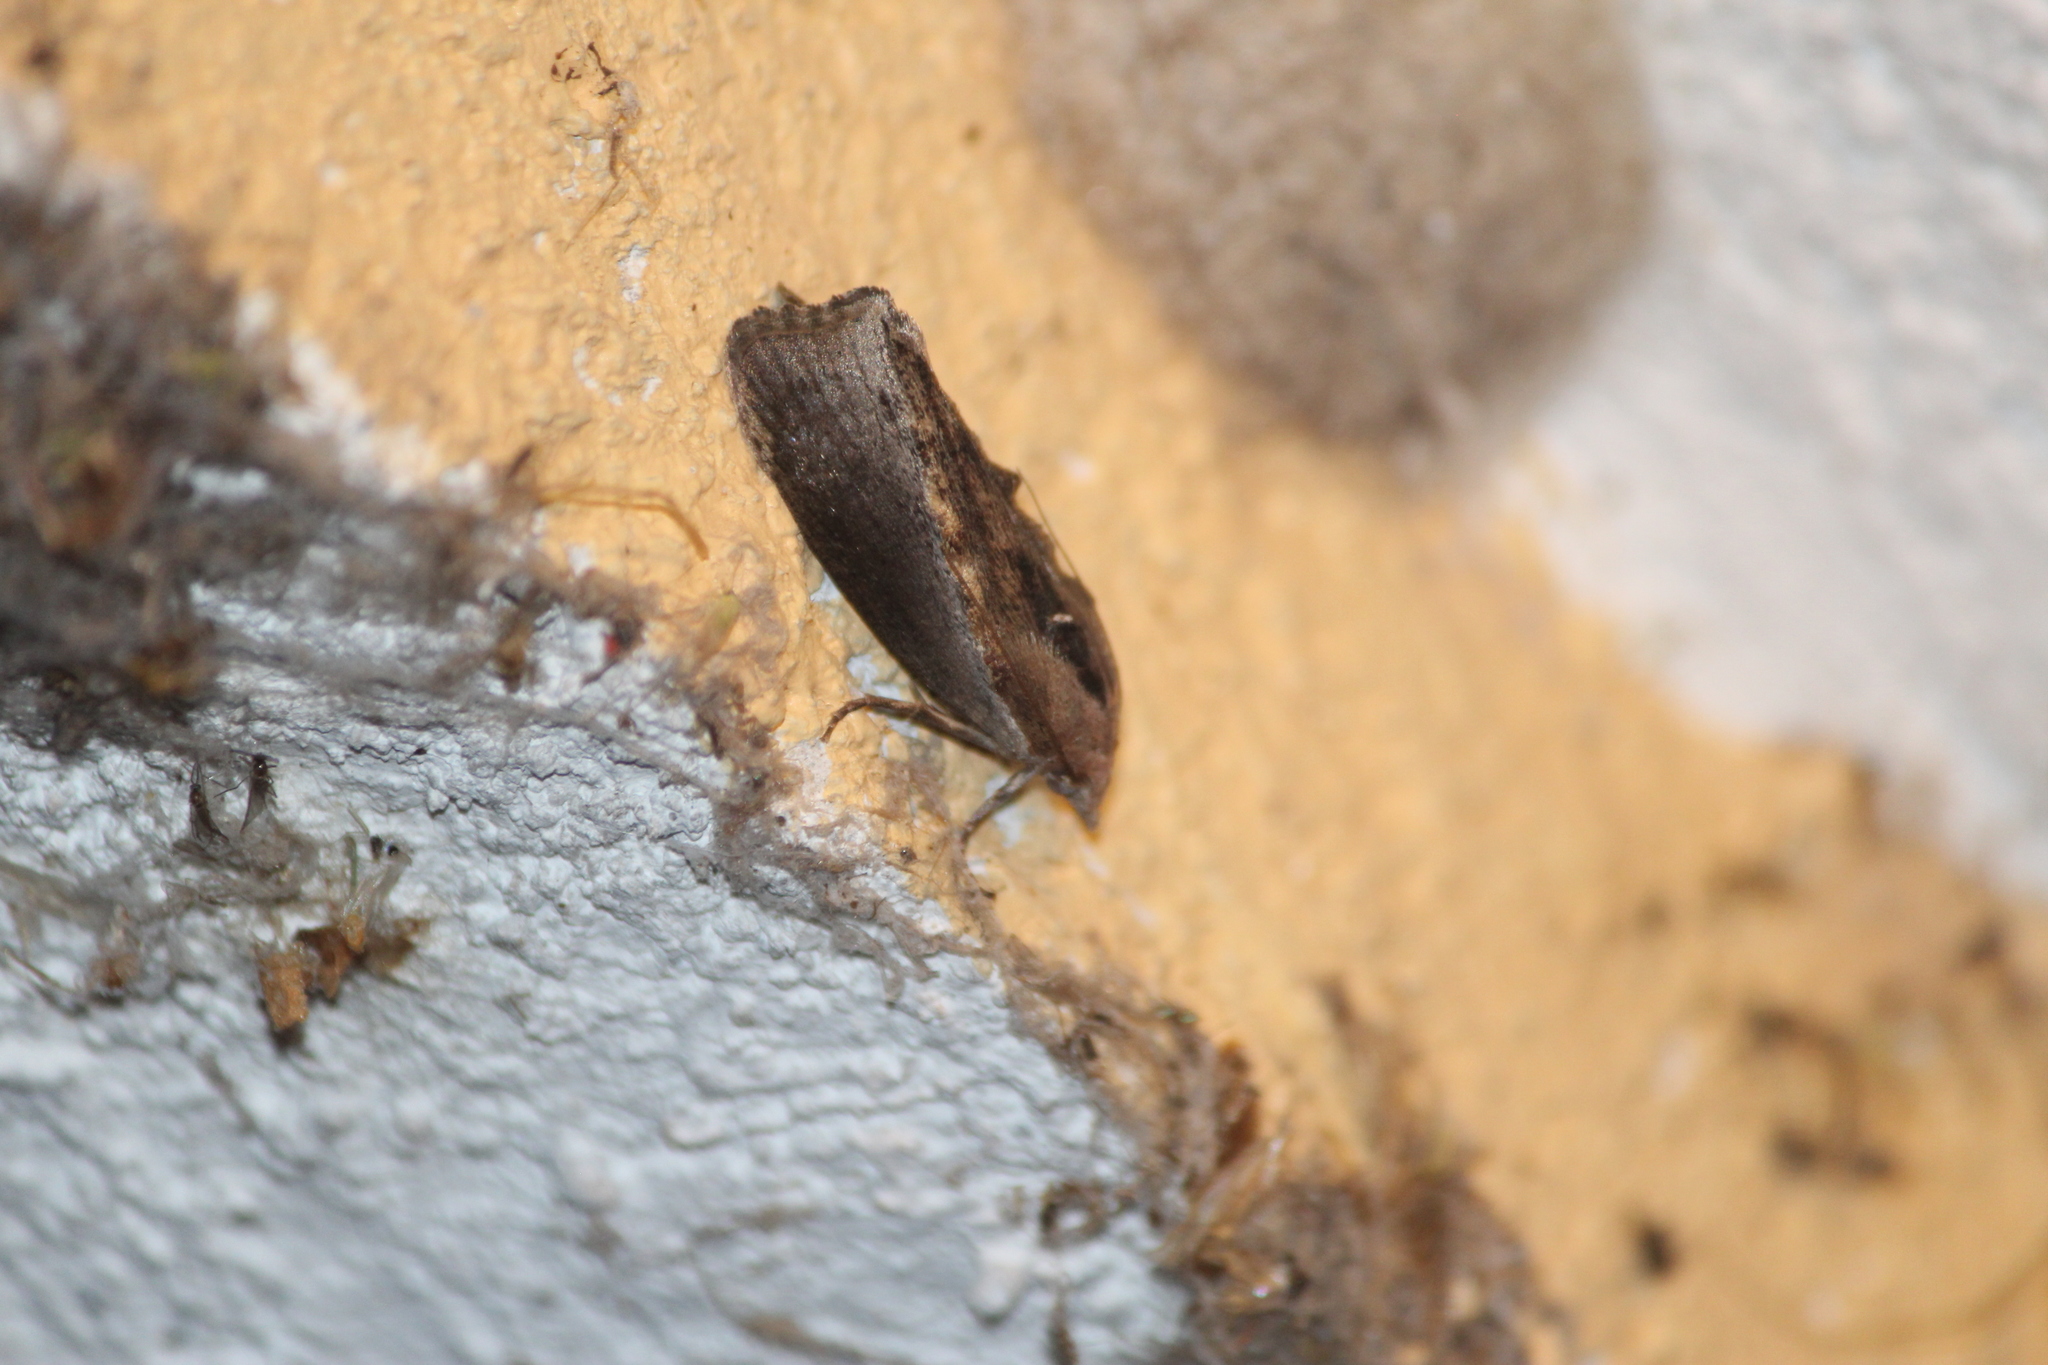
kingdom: Animalia
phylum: Arthropoda
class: Insecta
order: Lepidoptera
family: Pyralidae
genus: Galleria
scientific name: Galleria mellonella
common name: Greater wax moth
